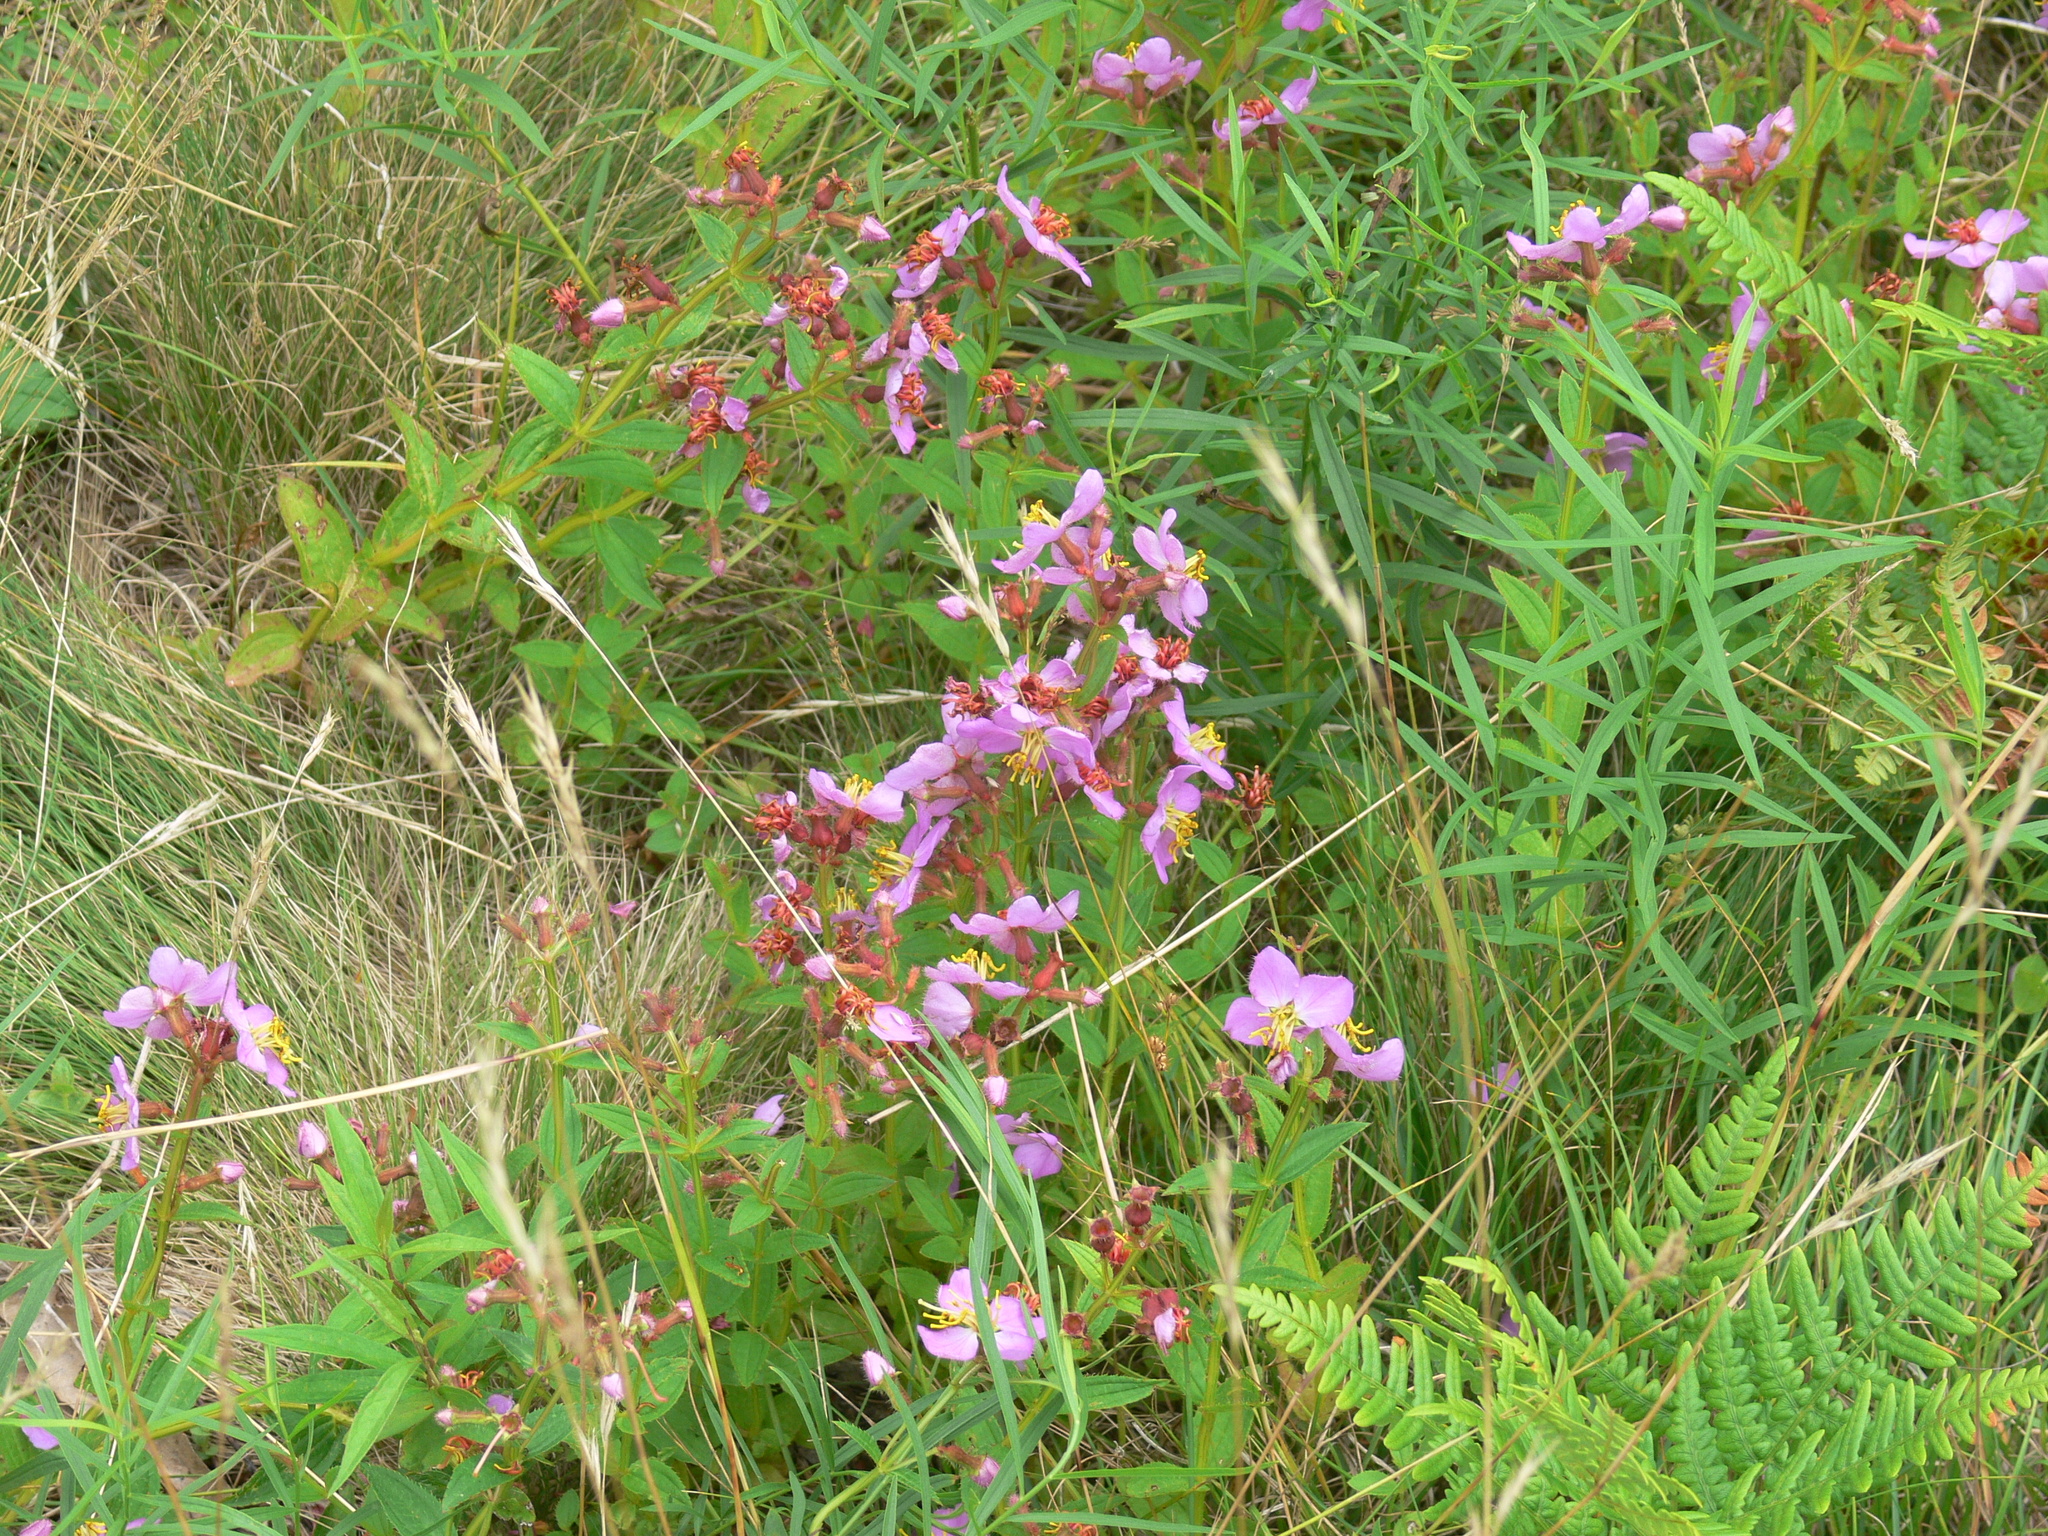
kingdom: Plantae
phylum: Tracheophyta
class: Magnoliopsida
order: Myrtales
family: Melastomataceae
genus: Rhexia
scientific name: Rhexia virginica
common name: Common meadow beauty
